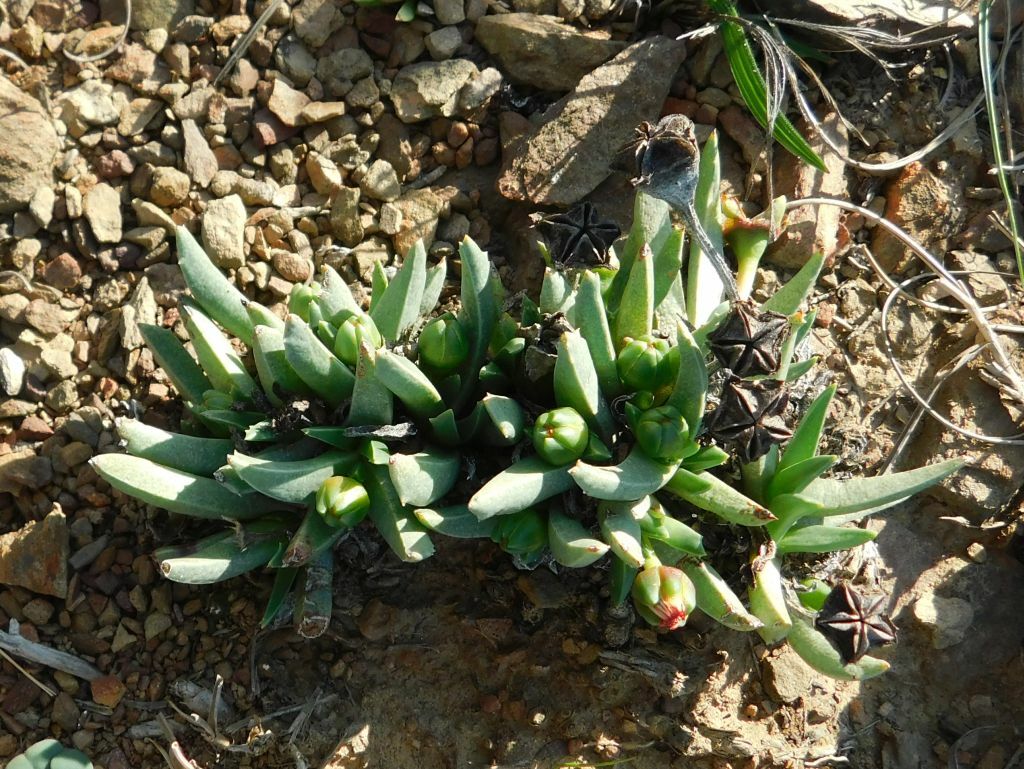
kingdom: Plantae
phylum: Tracheophyta
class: Magnoliopsida
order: Caryophyllales
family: Aizoaceae
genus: Acrodon
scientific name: Acrodon subulatus
